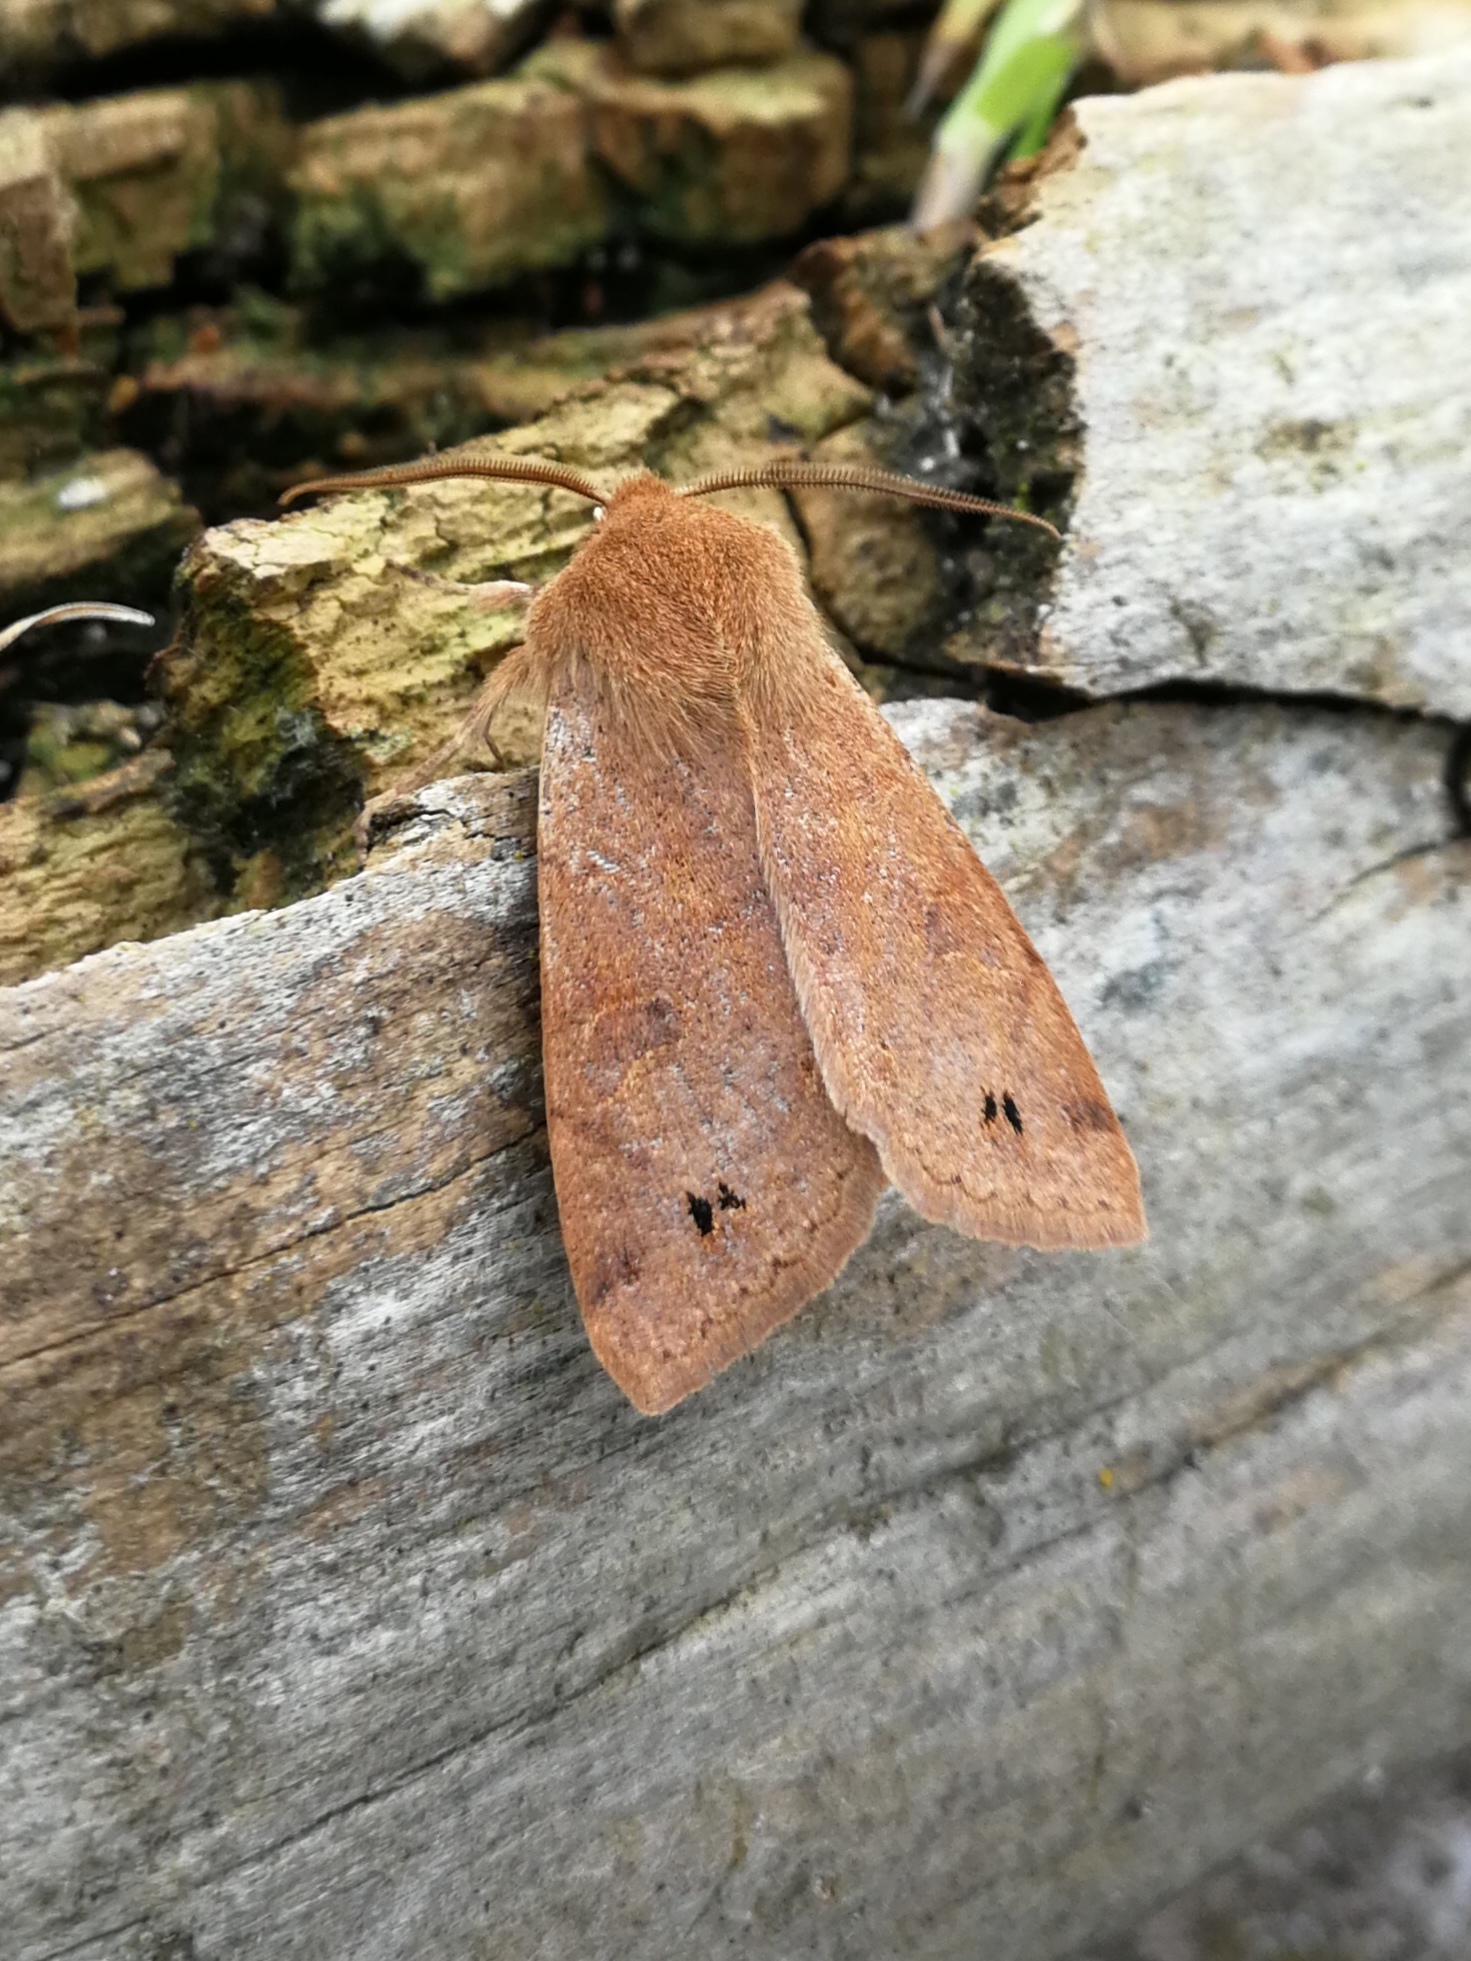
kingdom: Animalia
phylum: Arthropoda
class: Insecta
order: Lepidoptera
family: Noctuidae
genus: Anorthoa
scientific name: Anorthoa munda
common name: Twin-spotted quaker
